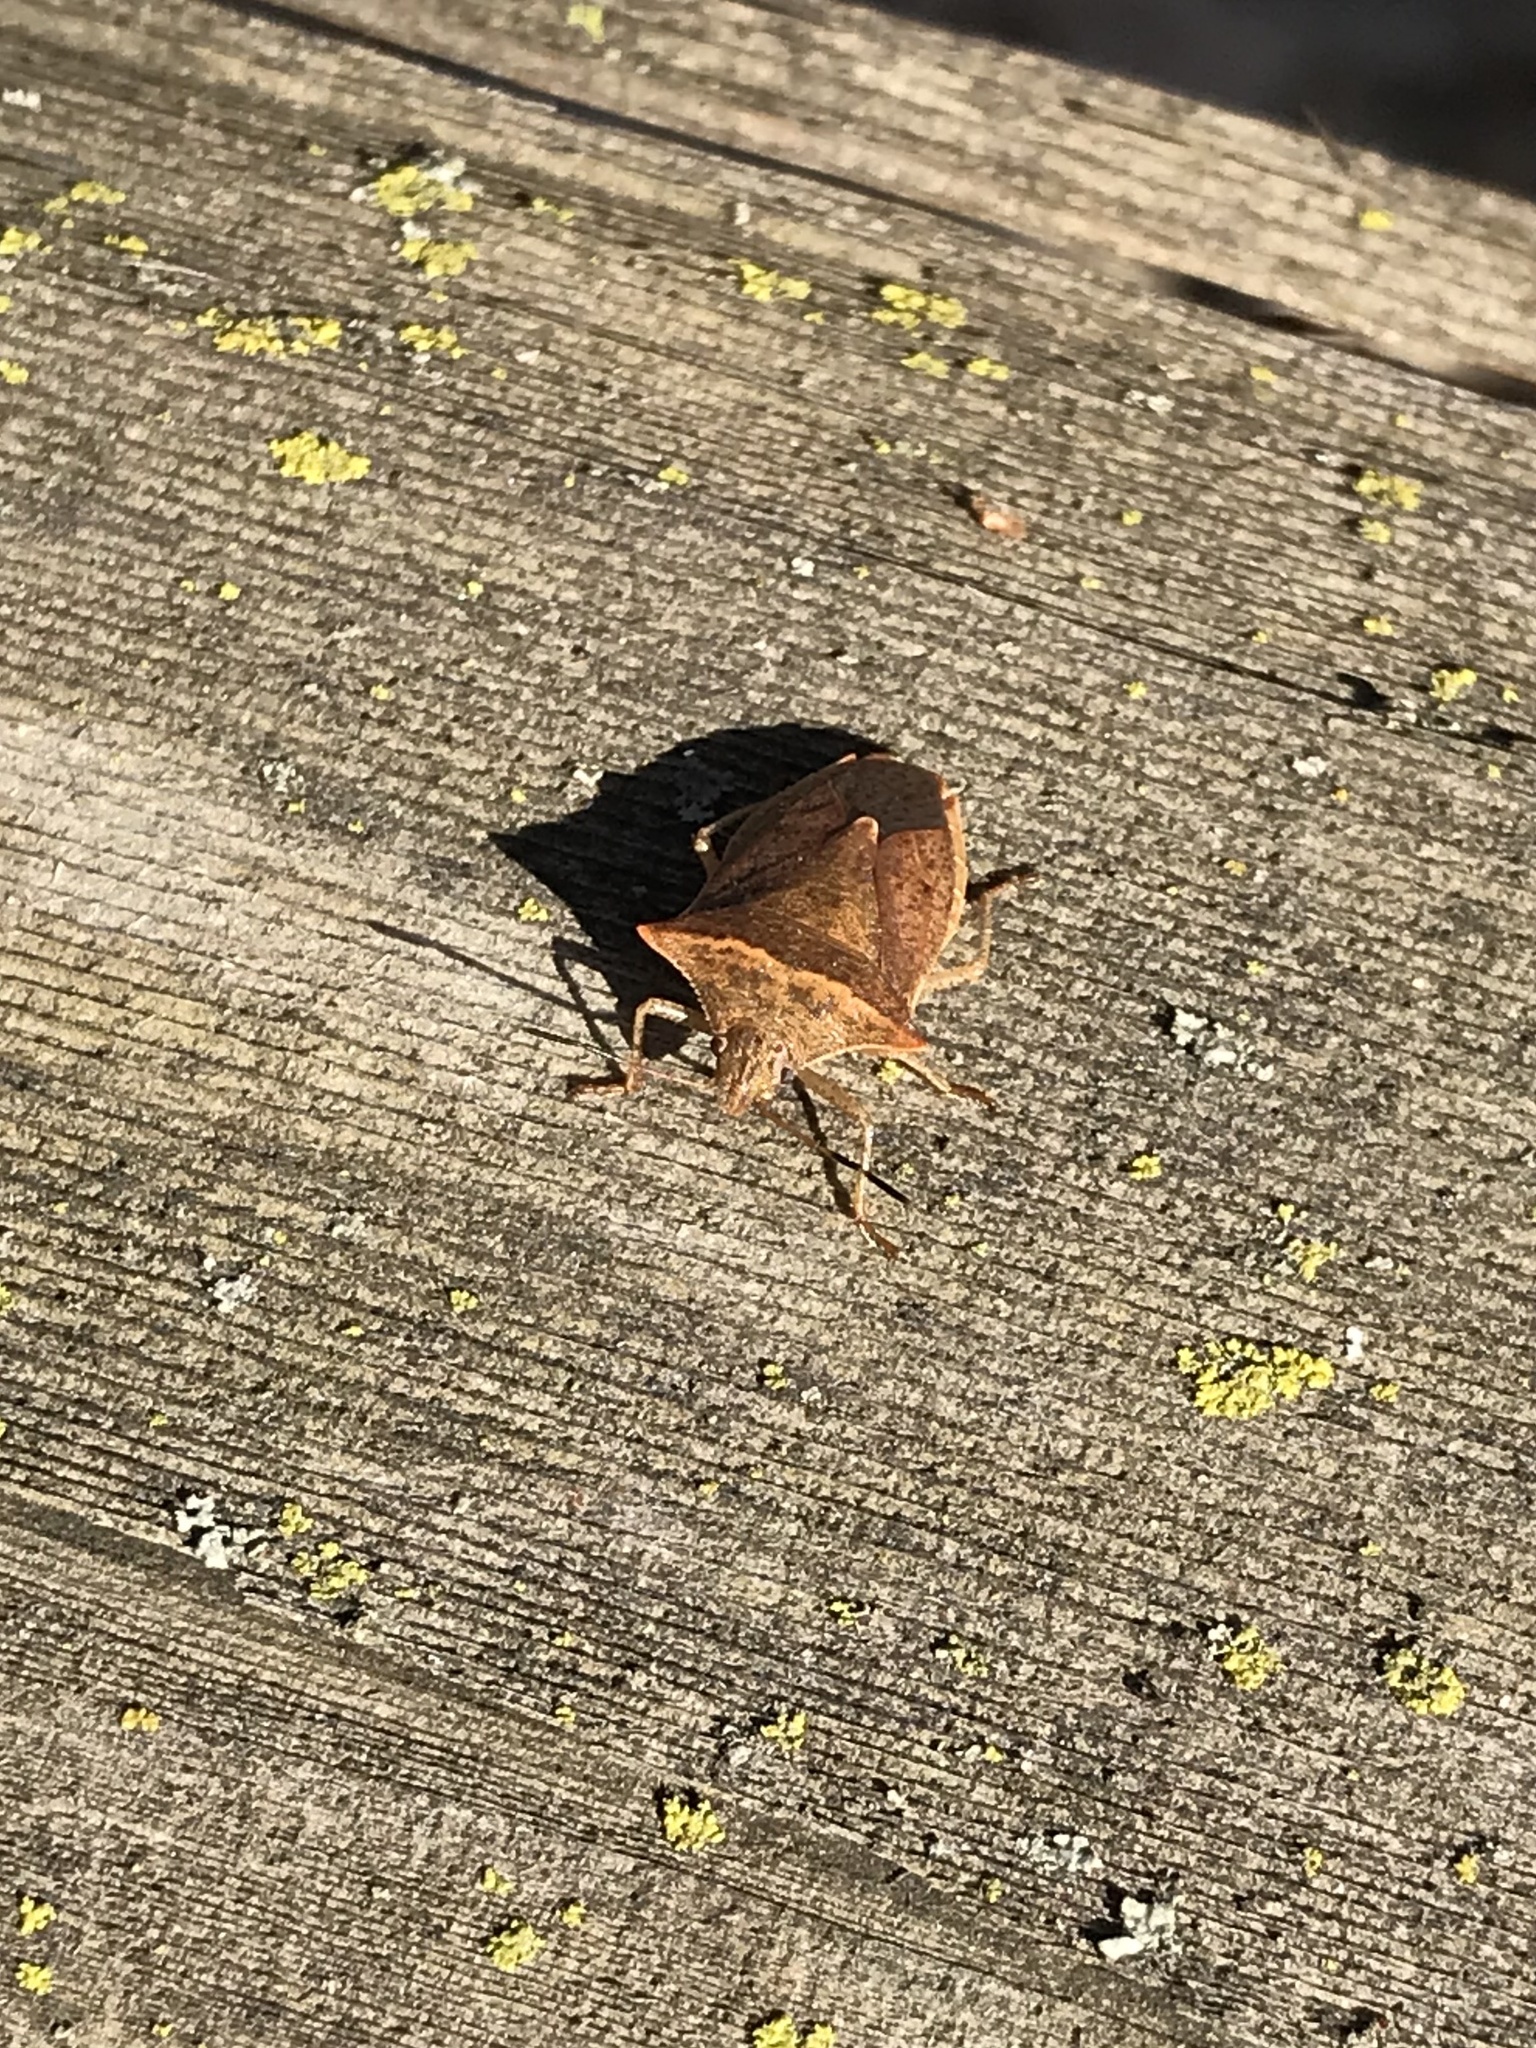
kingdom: Animalia
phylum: Arthropoda
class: Insecta
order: Hemiptera
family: Pentatomidae
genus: Euschistus
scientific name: Euschistus ictericus
